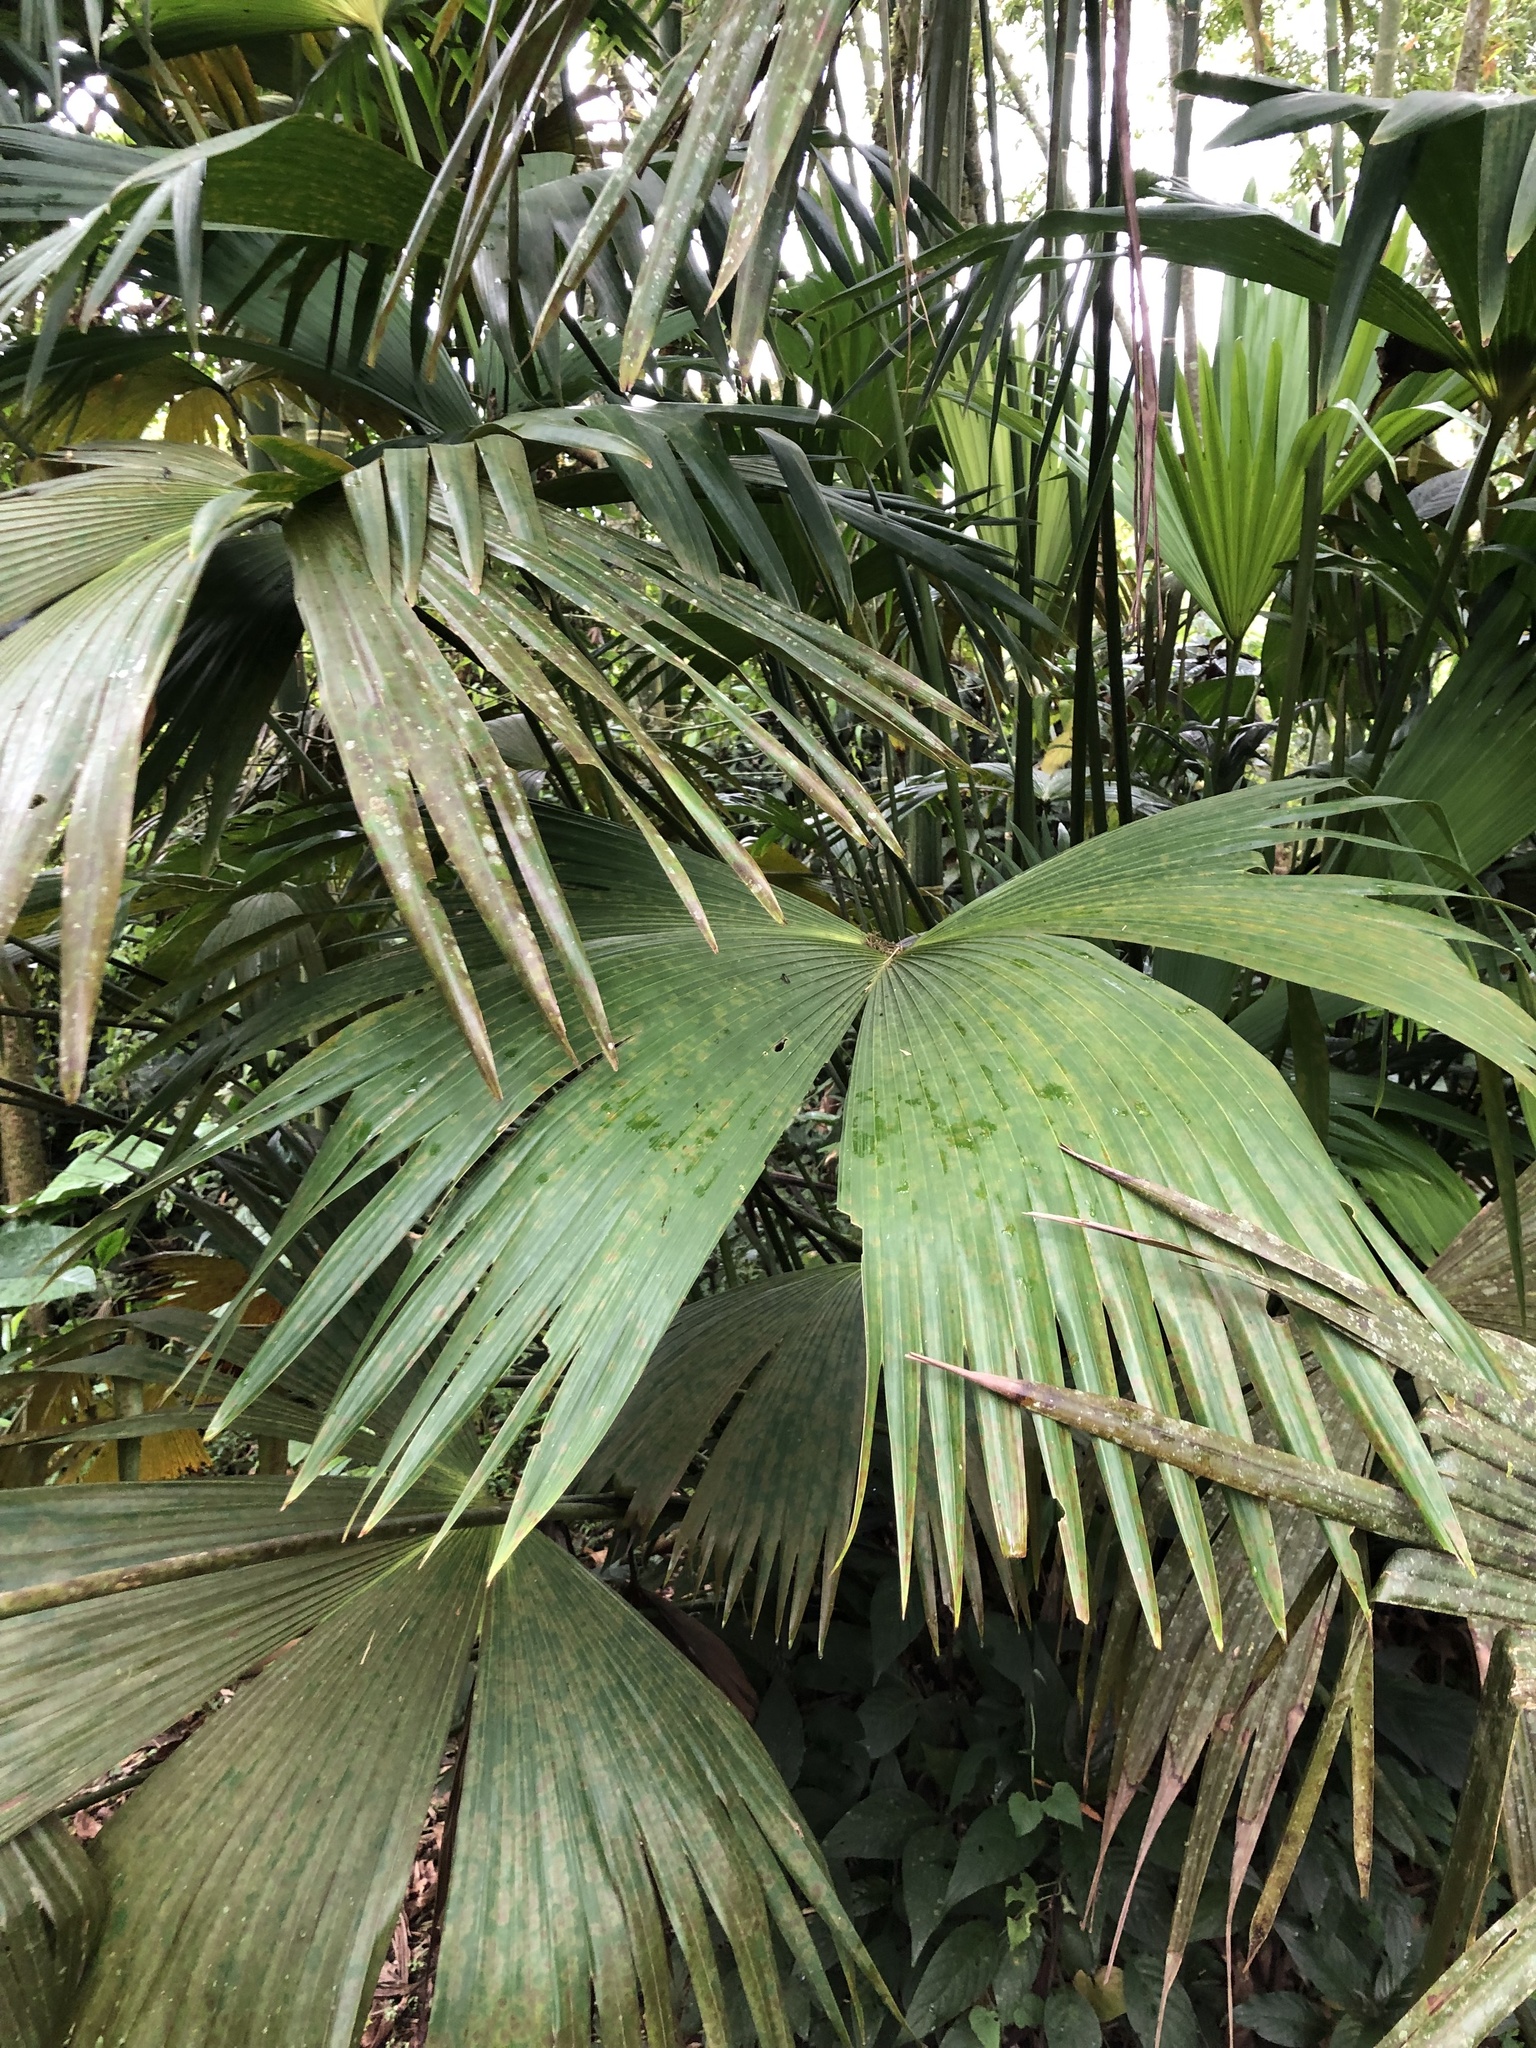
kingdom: Plantae
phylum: Tracheophyta
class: Liliopsida
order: Pandanales
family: Cyclanthaceae
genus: Carludovica
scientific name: Carludovica palmata
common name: Panama hat plant
